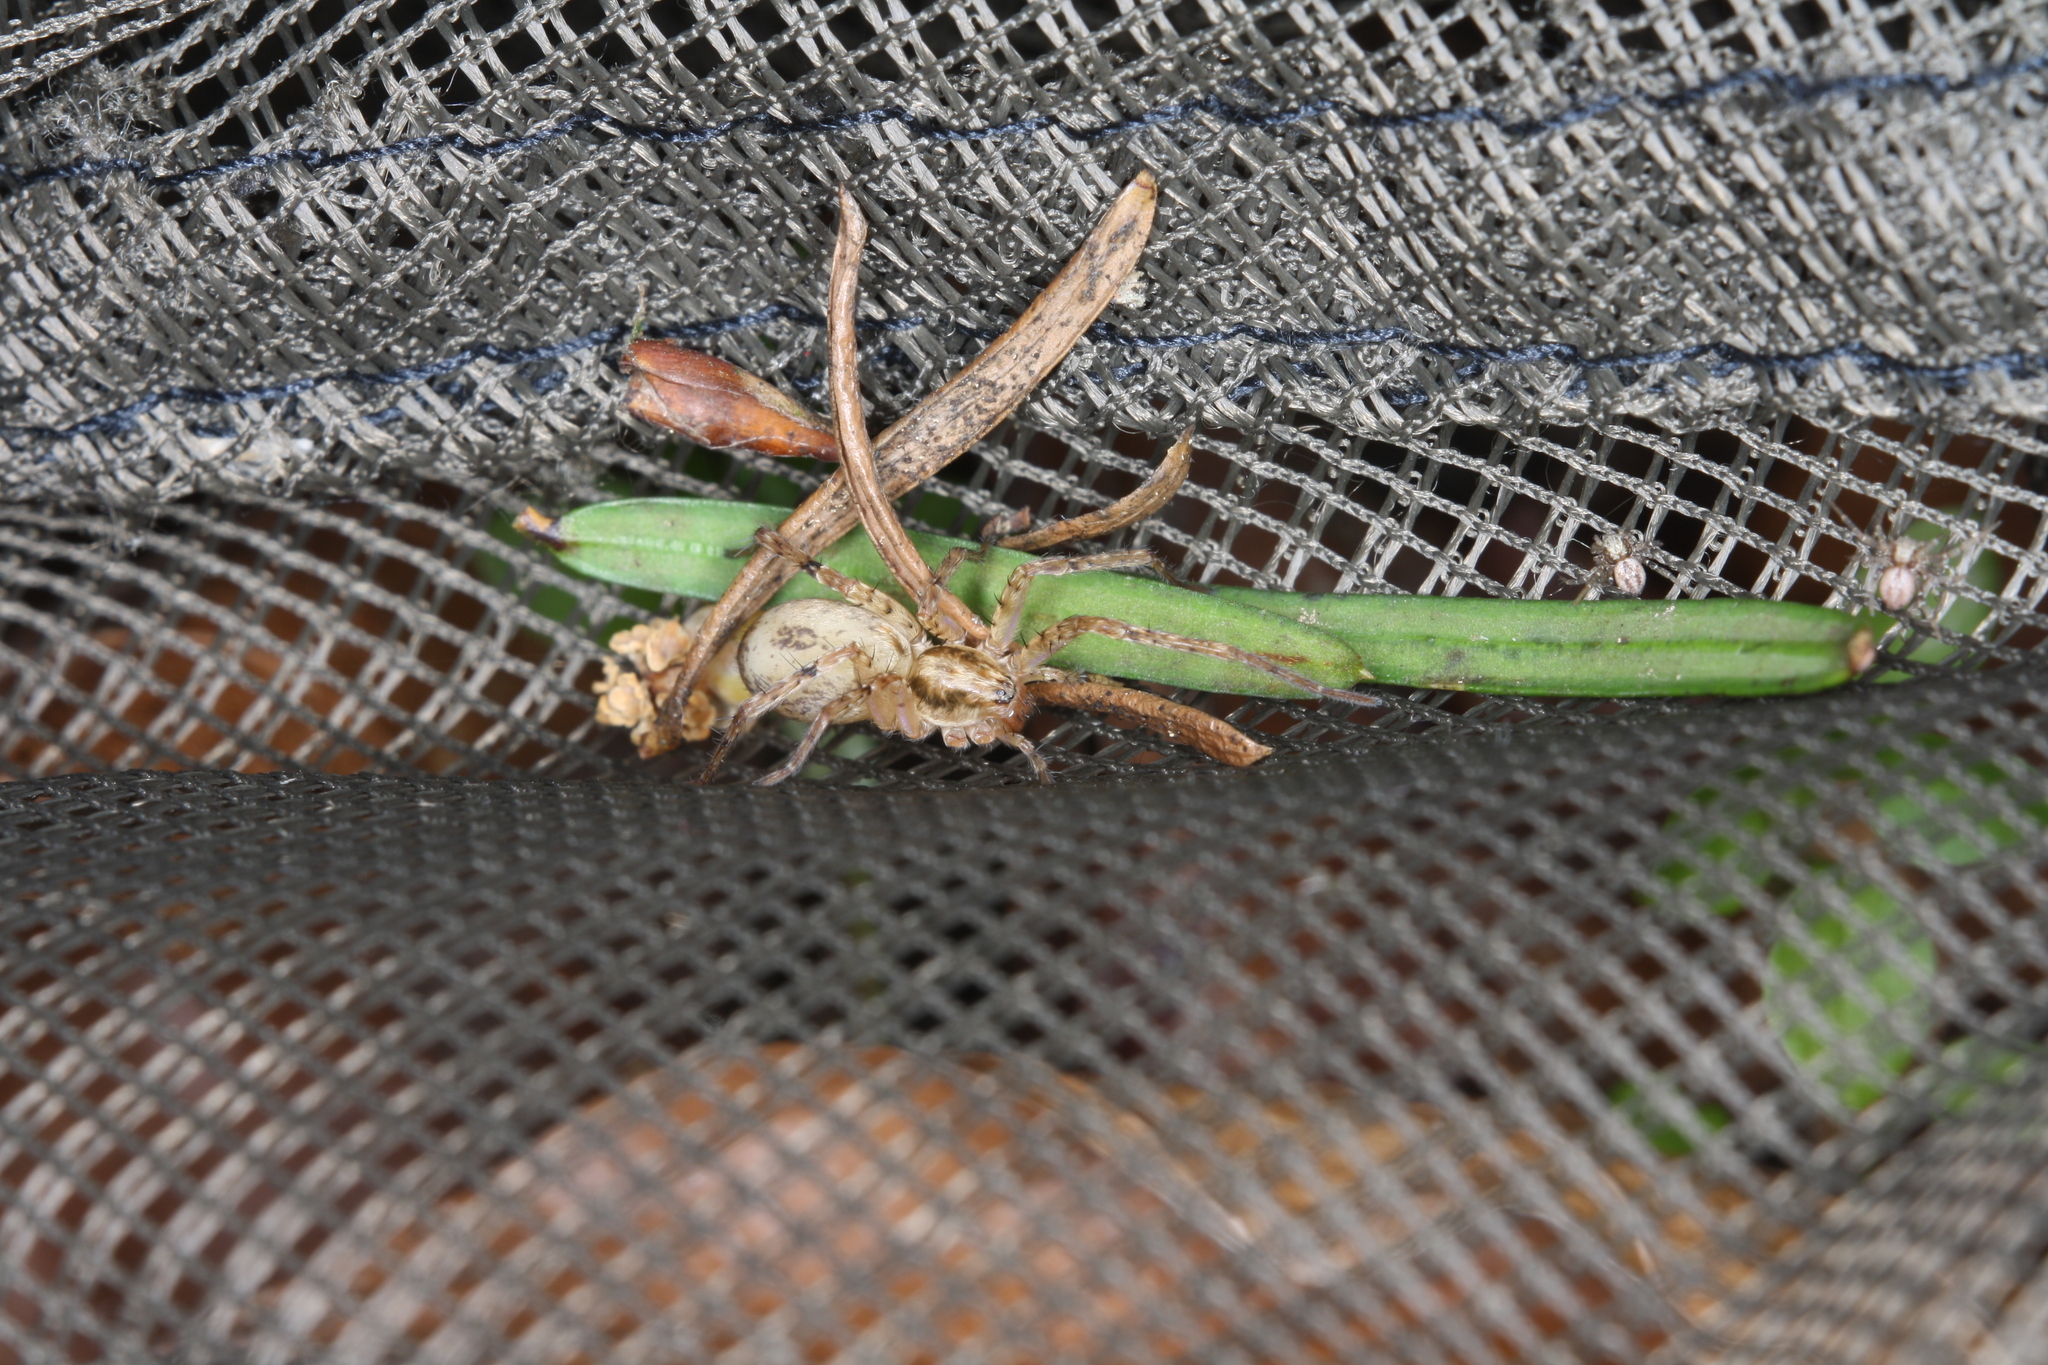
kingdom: Animalia
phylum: Arthropoda
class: Arachnida
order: Araneae
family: Anyphaenidae
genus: Anyphaena
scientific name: Anyphaena accentuata
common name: Buzzing spider
